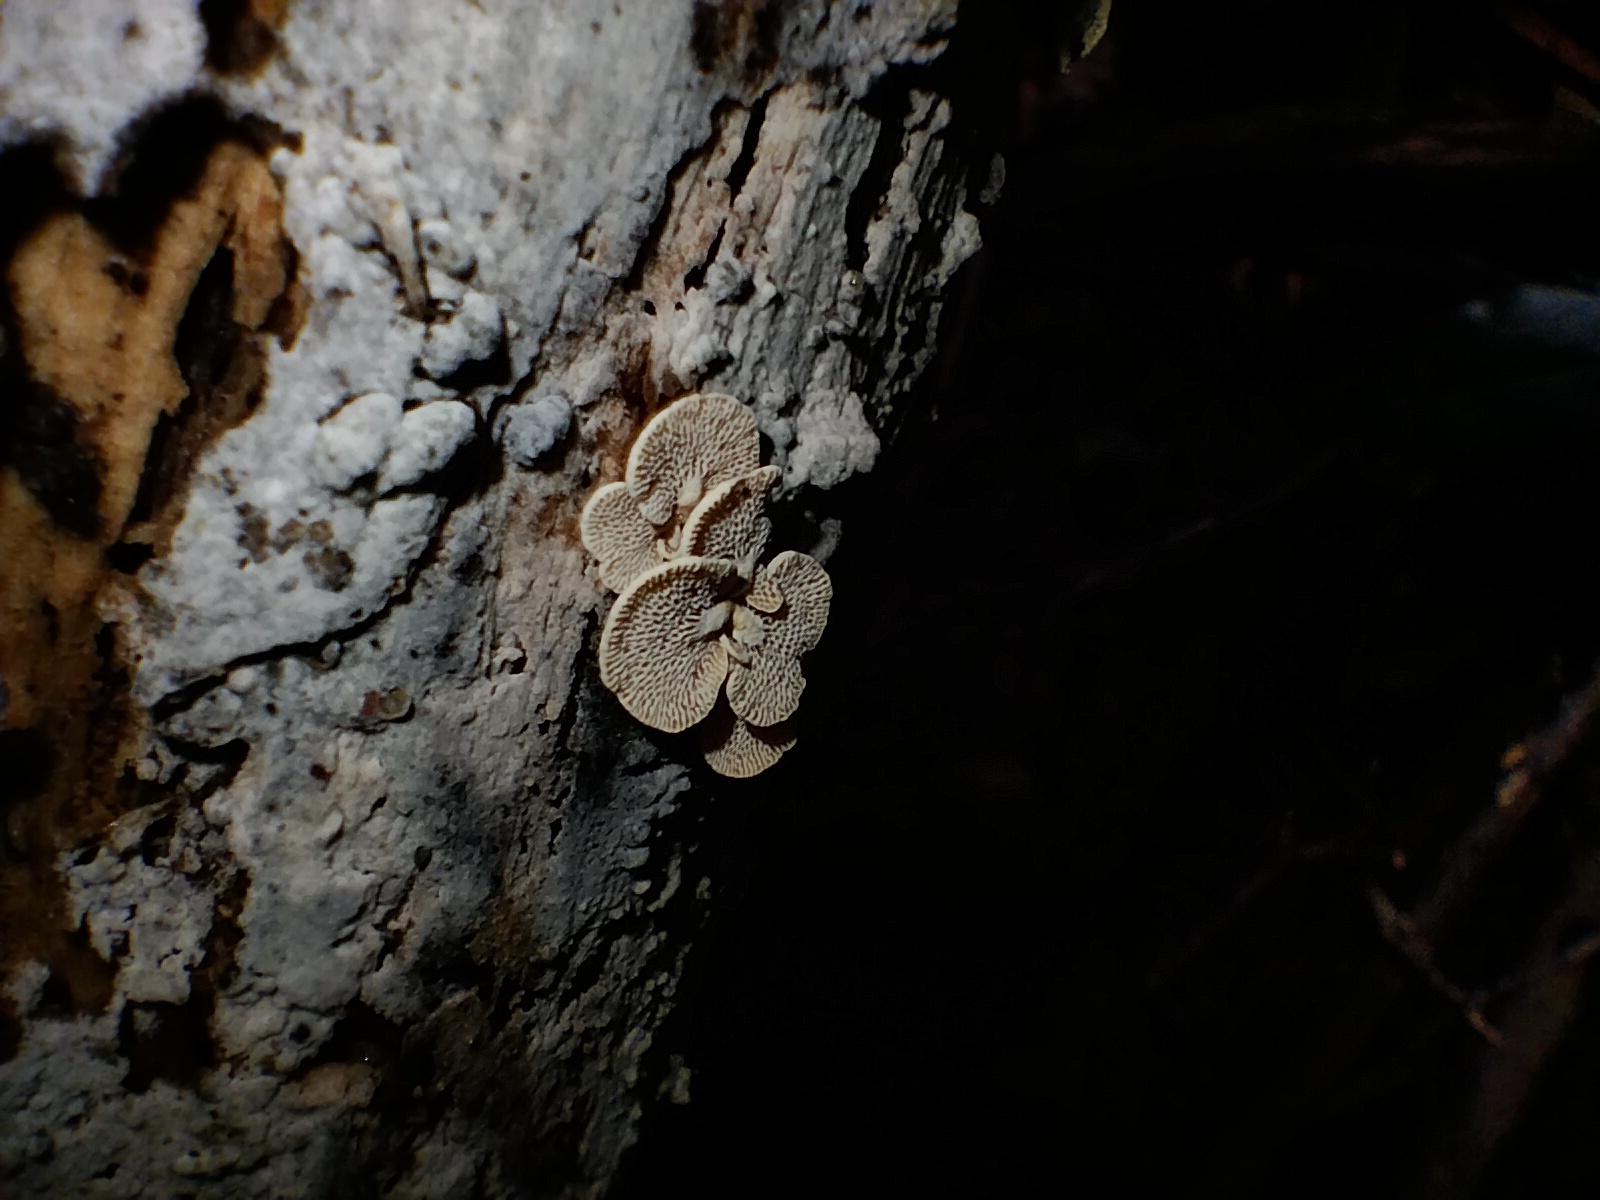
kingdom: Fungi
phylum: Basidiomycota
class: Agaricomycetes
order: Agaricales
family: Mycenaceae
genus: Panellus
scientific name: Panellus luxfilamentus
